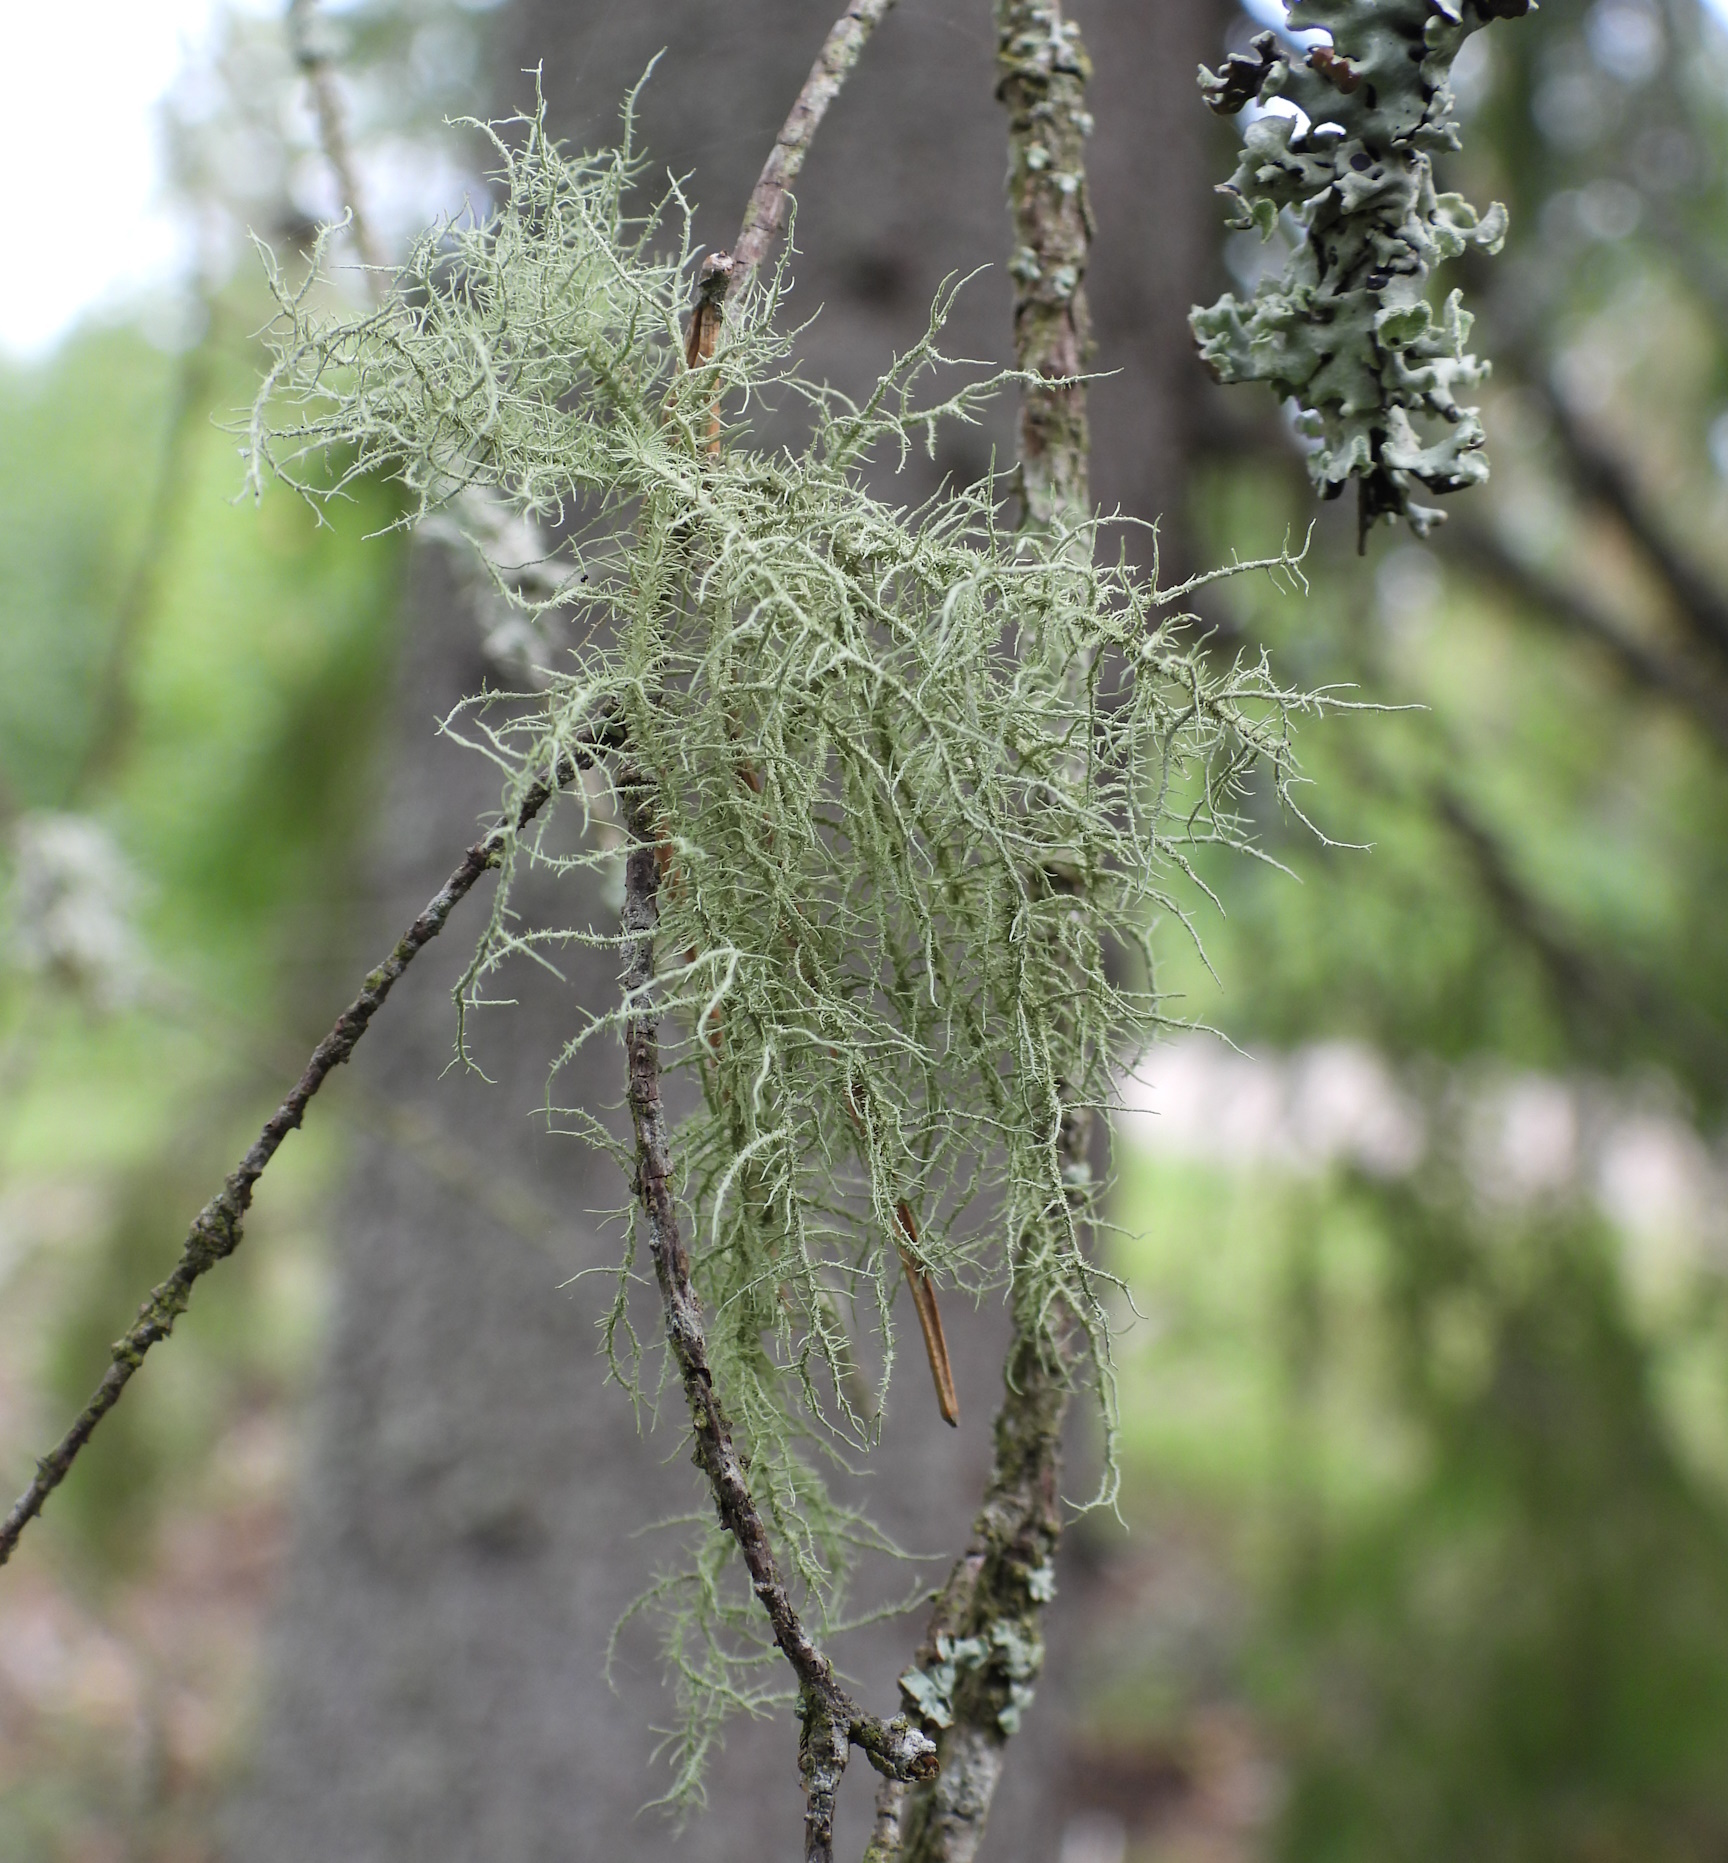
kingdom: Fungi
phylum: Ascomycota
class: Lecanoromycetes
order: Lecanorales
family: Parmeliaceae
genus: Usnea
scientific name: Usnea hirta
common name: Bristly beard lichen
